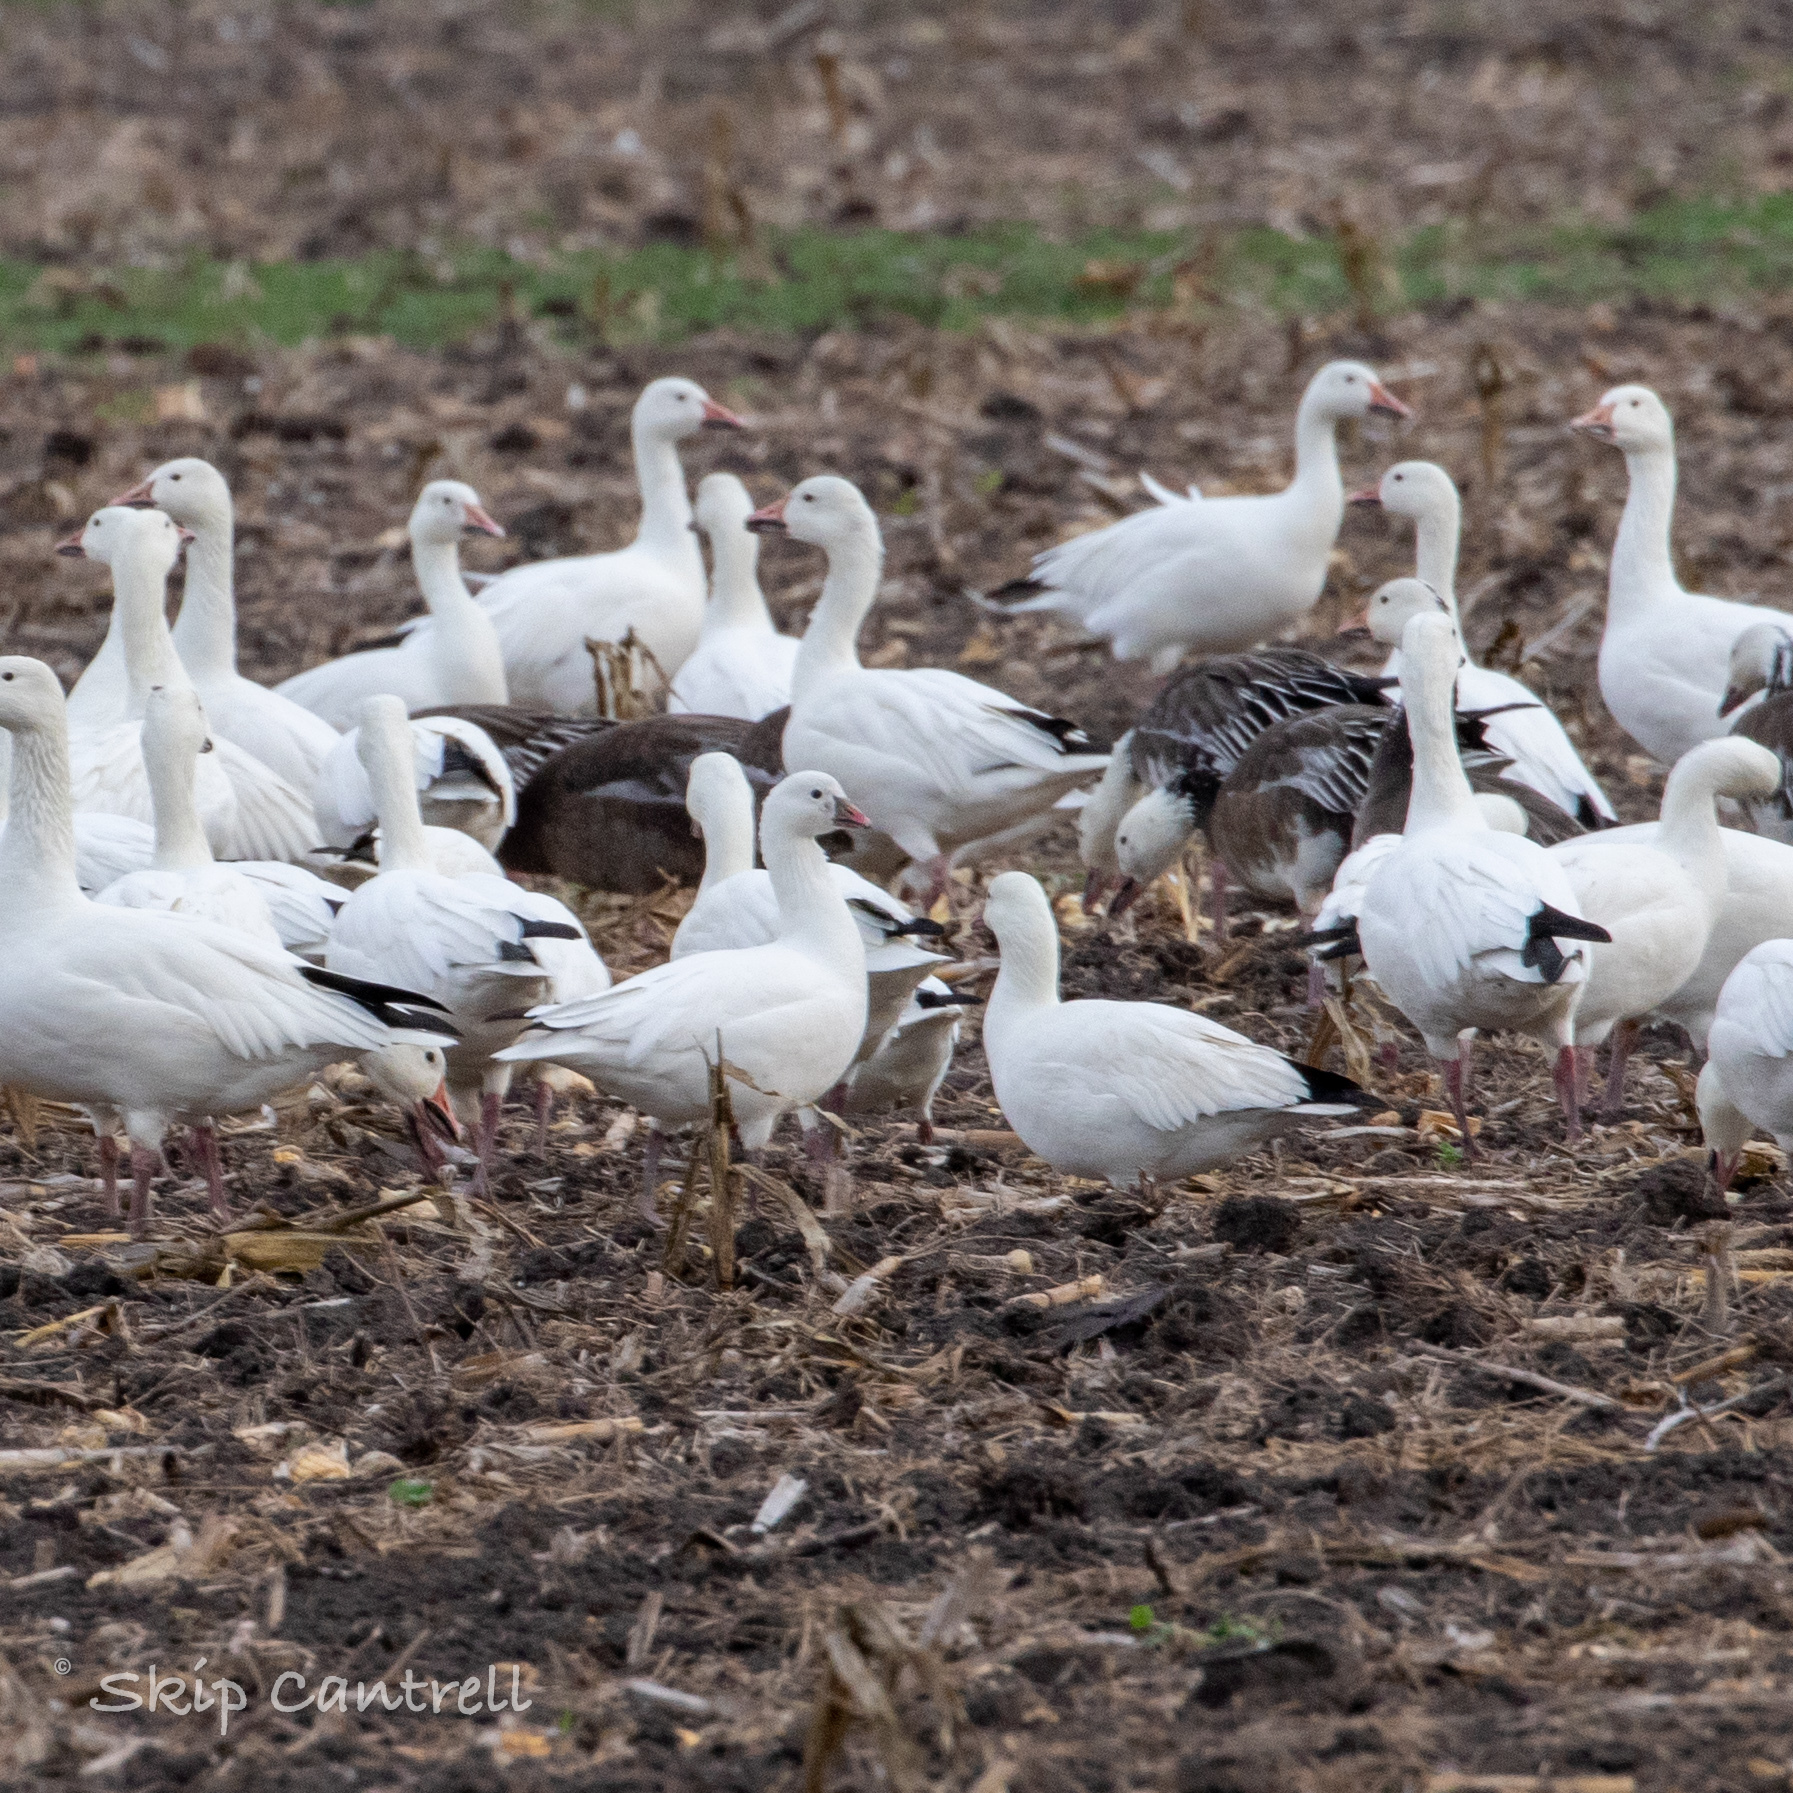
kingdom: Animalia
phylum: Chordata
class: Aves
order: Anseriformes
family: Anatidae
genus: Anser
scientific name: Anser rossii
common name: Ross's goose
